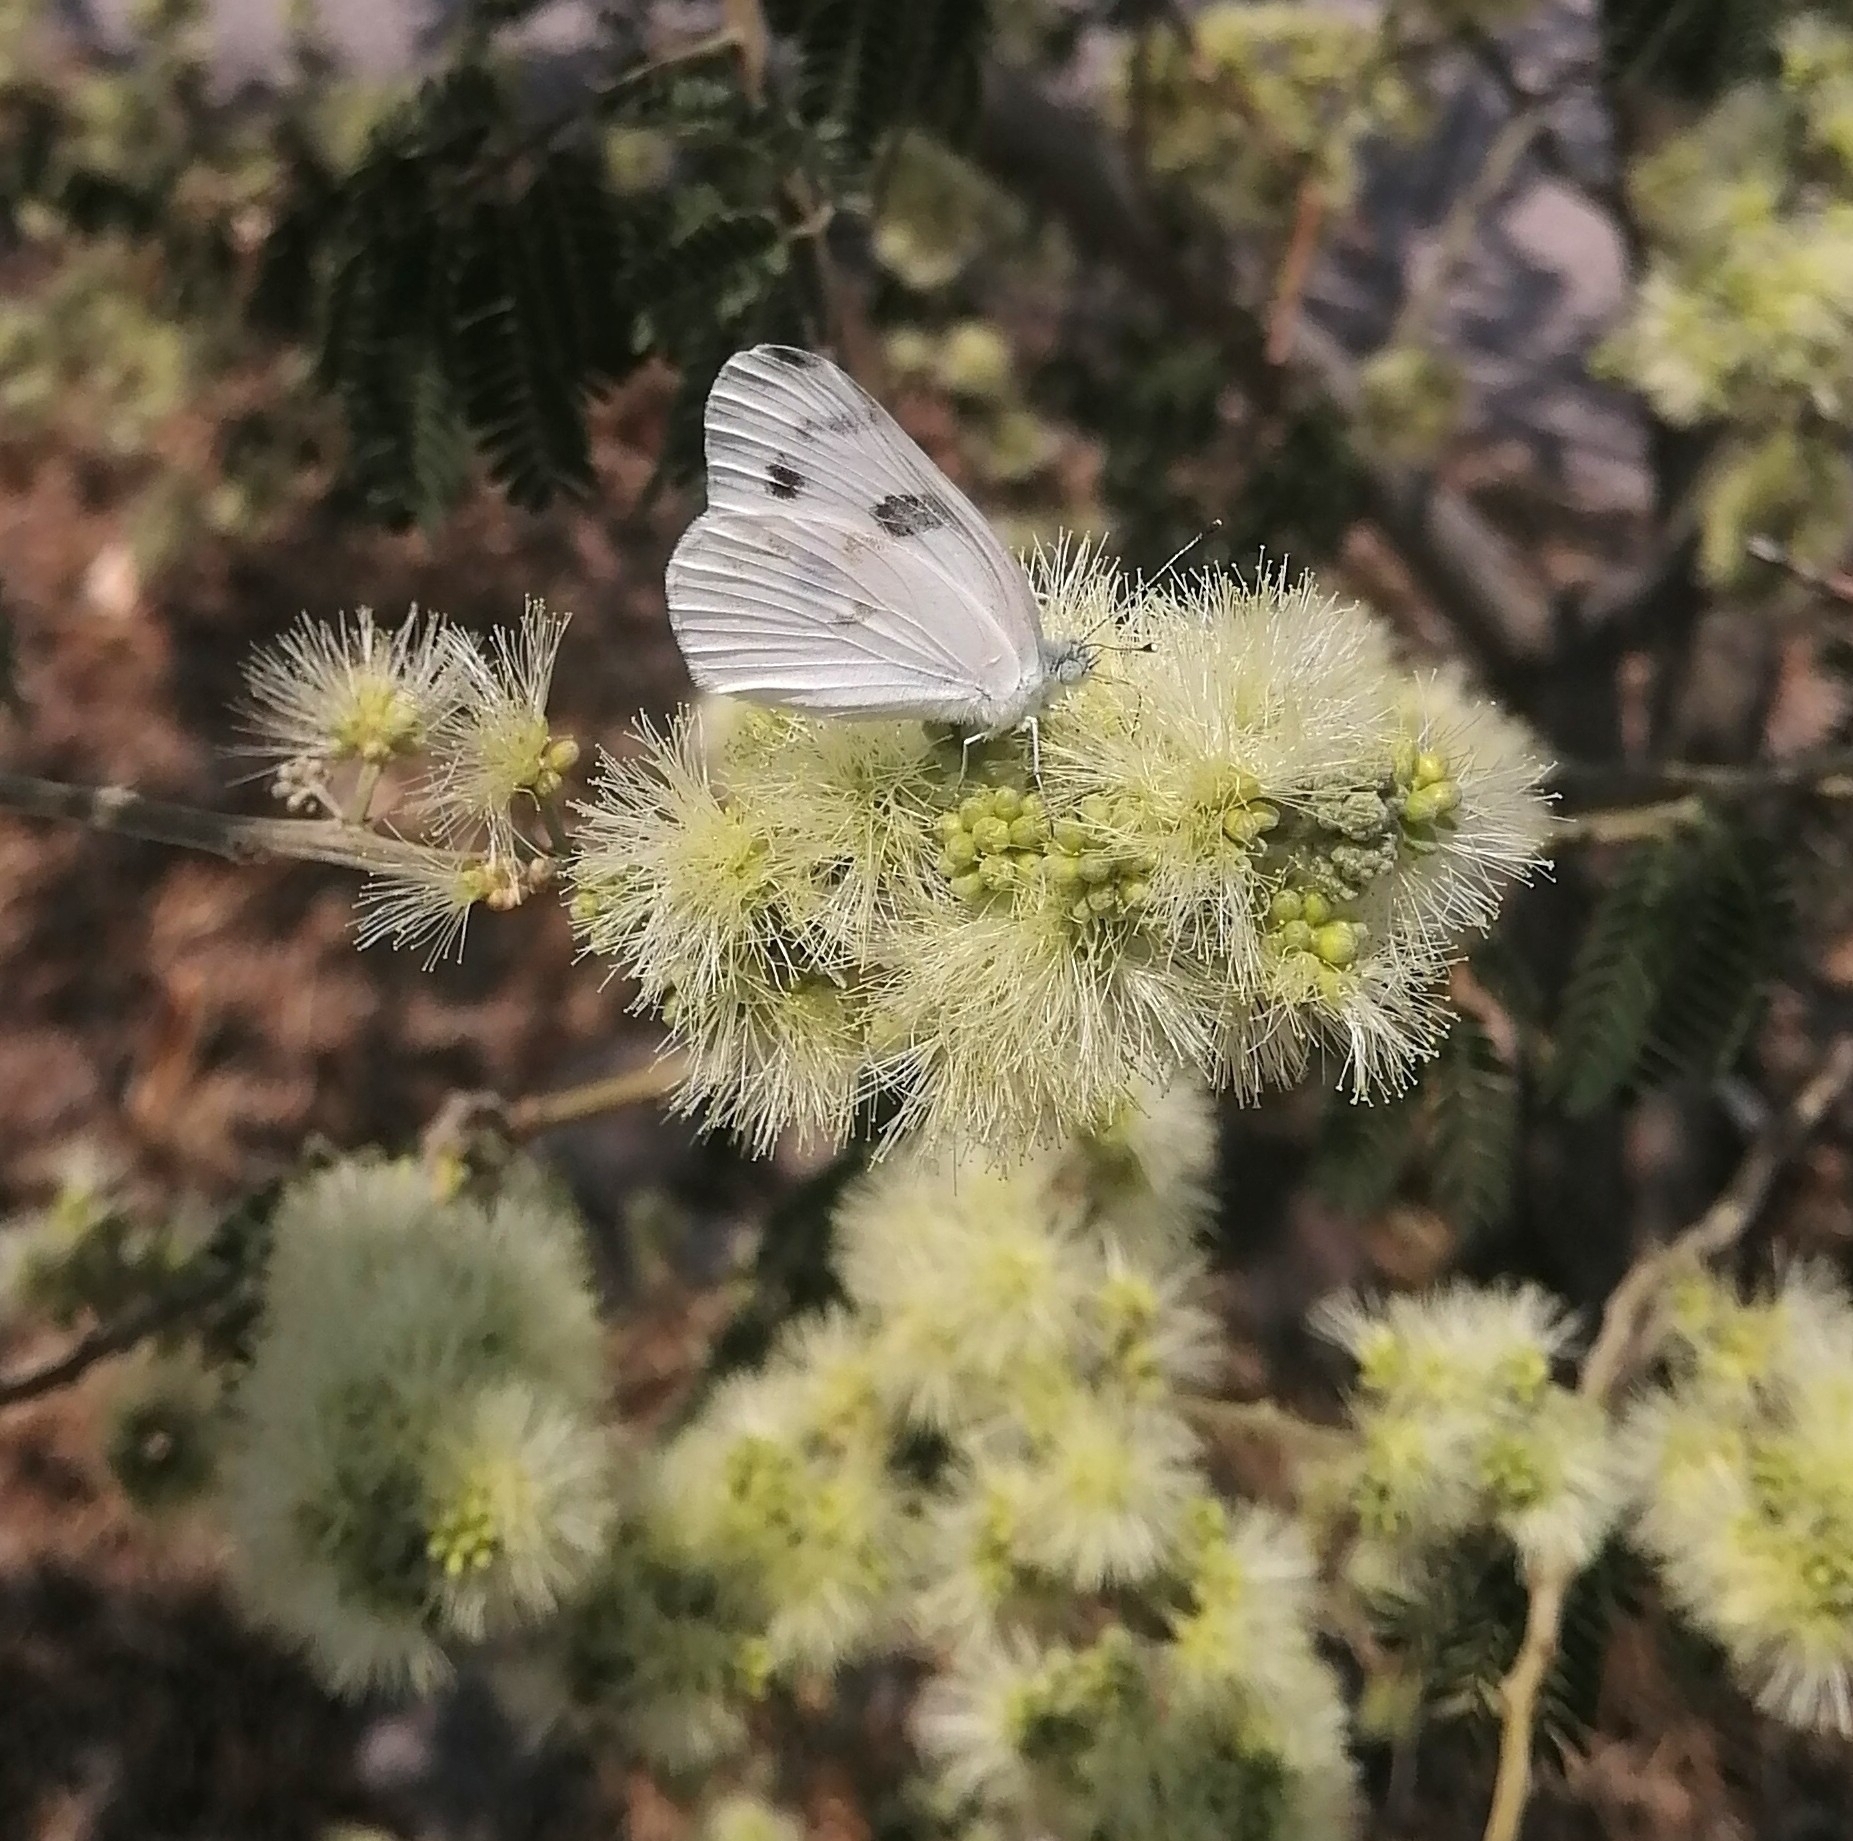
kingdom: Animalia
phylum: Arthropoda
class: Insecta
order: Lepidoptera
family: Pieridae
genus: Pontia
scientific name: Pontia protodice
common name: Checkered white
